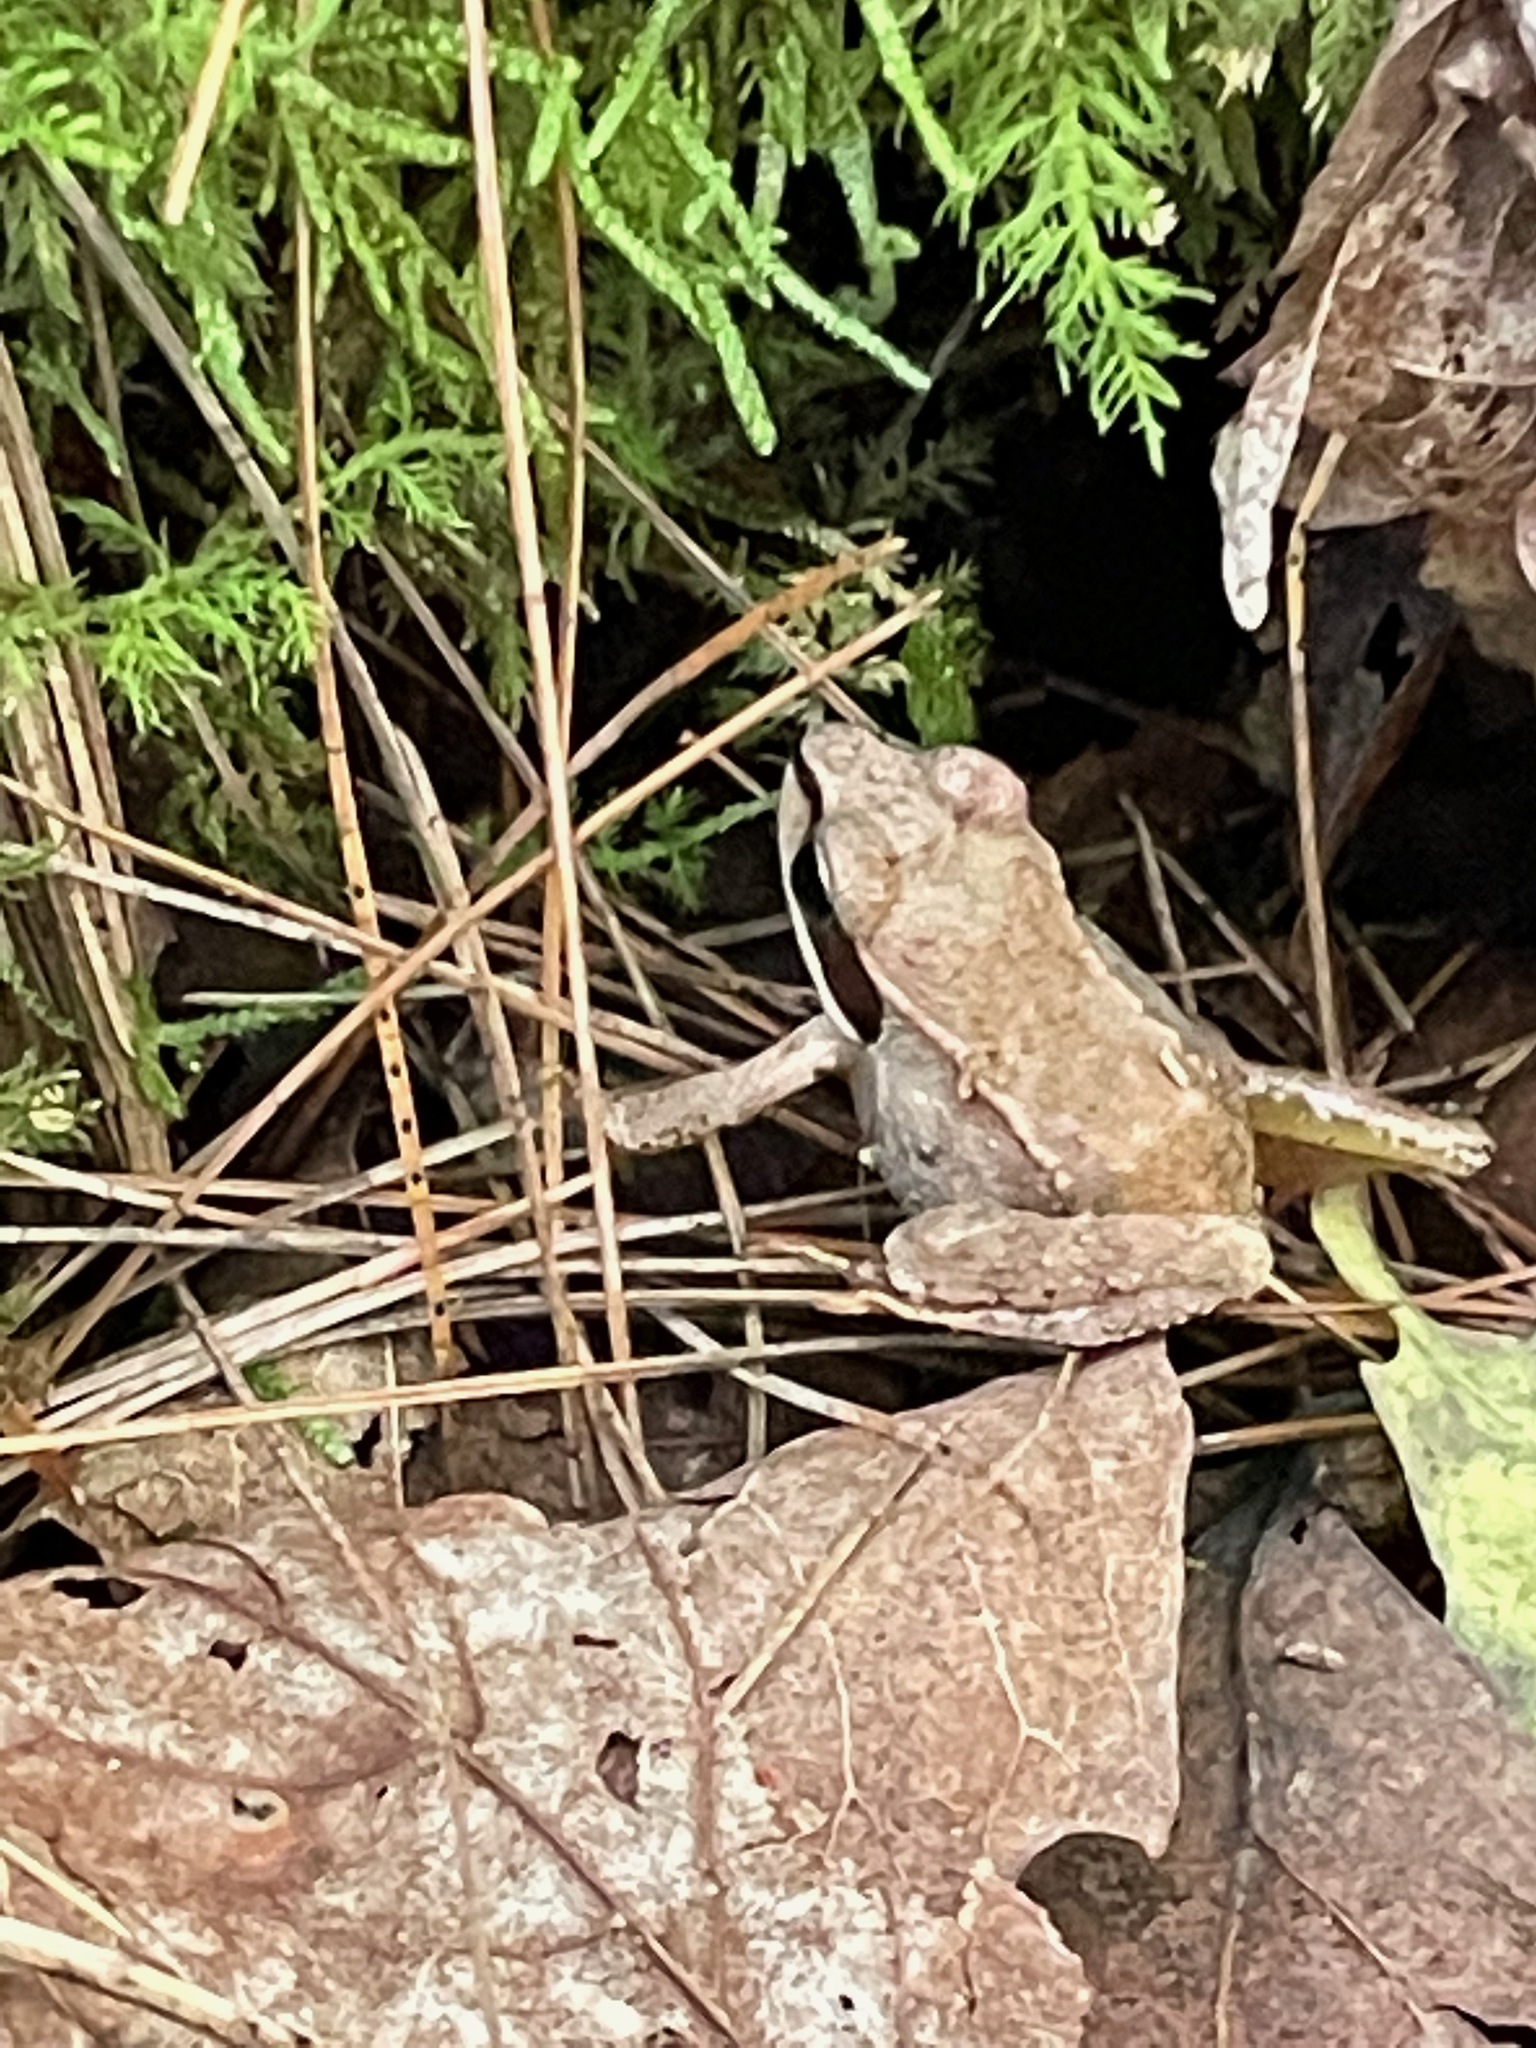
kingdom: Animalia
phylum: Chordata
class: Amphibia
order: Anura
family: Ranidae
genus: Lithobates
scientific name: Lithobates sylvaticus
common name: Wood frog
